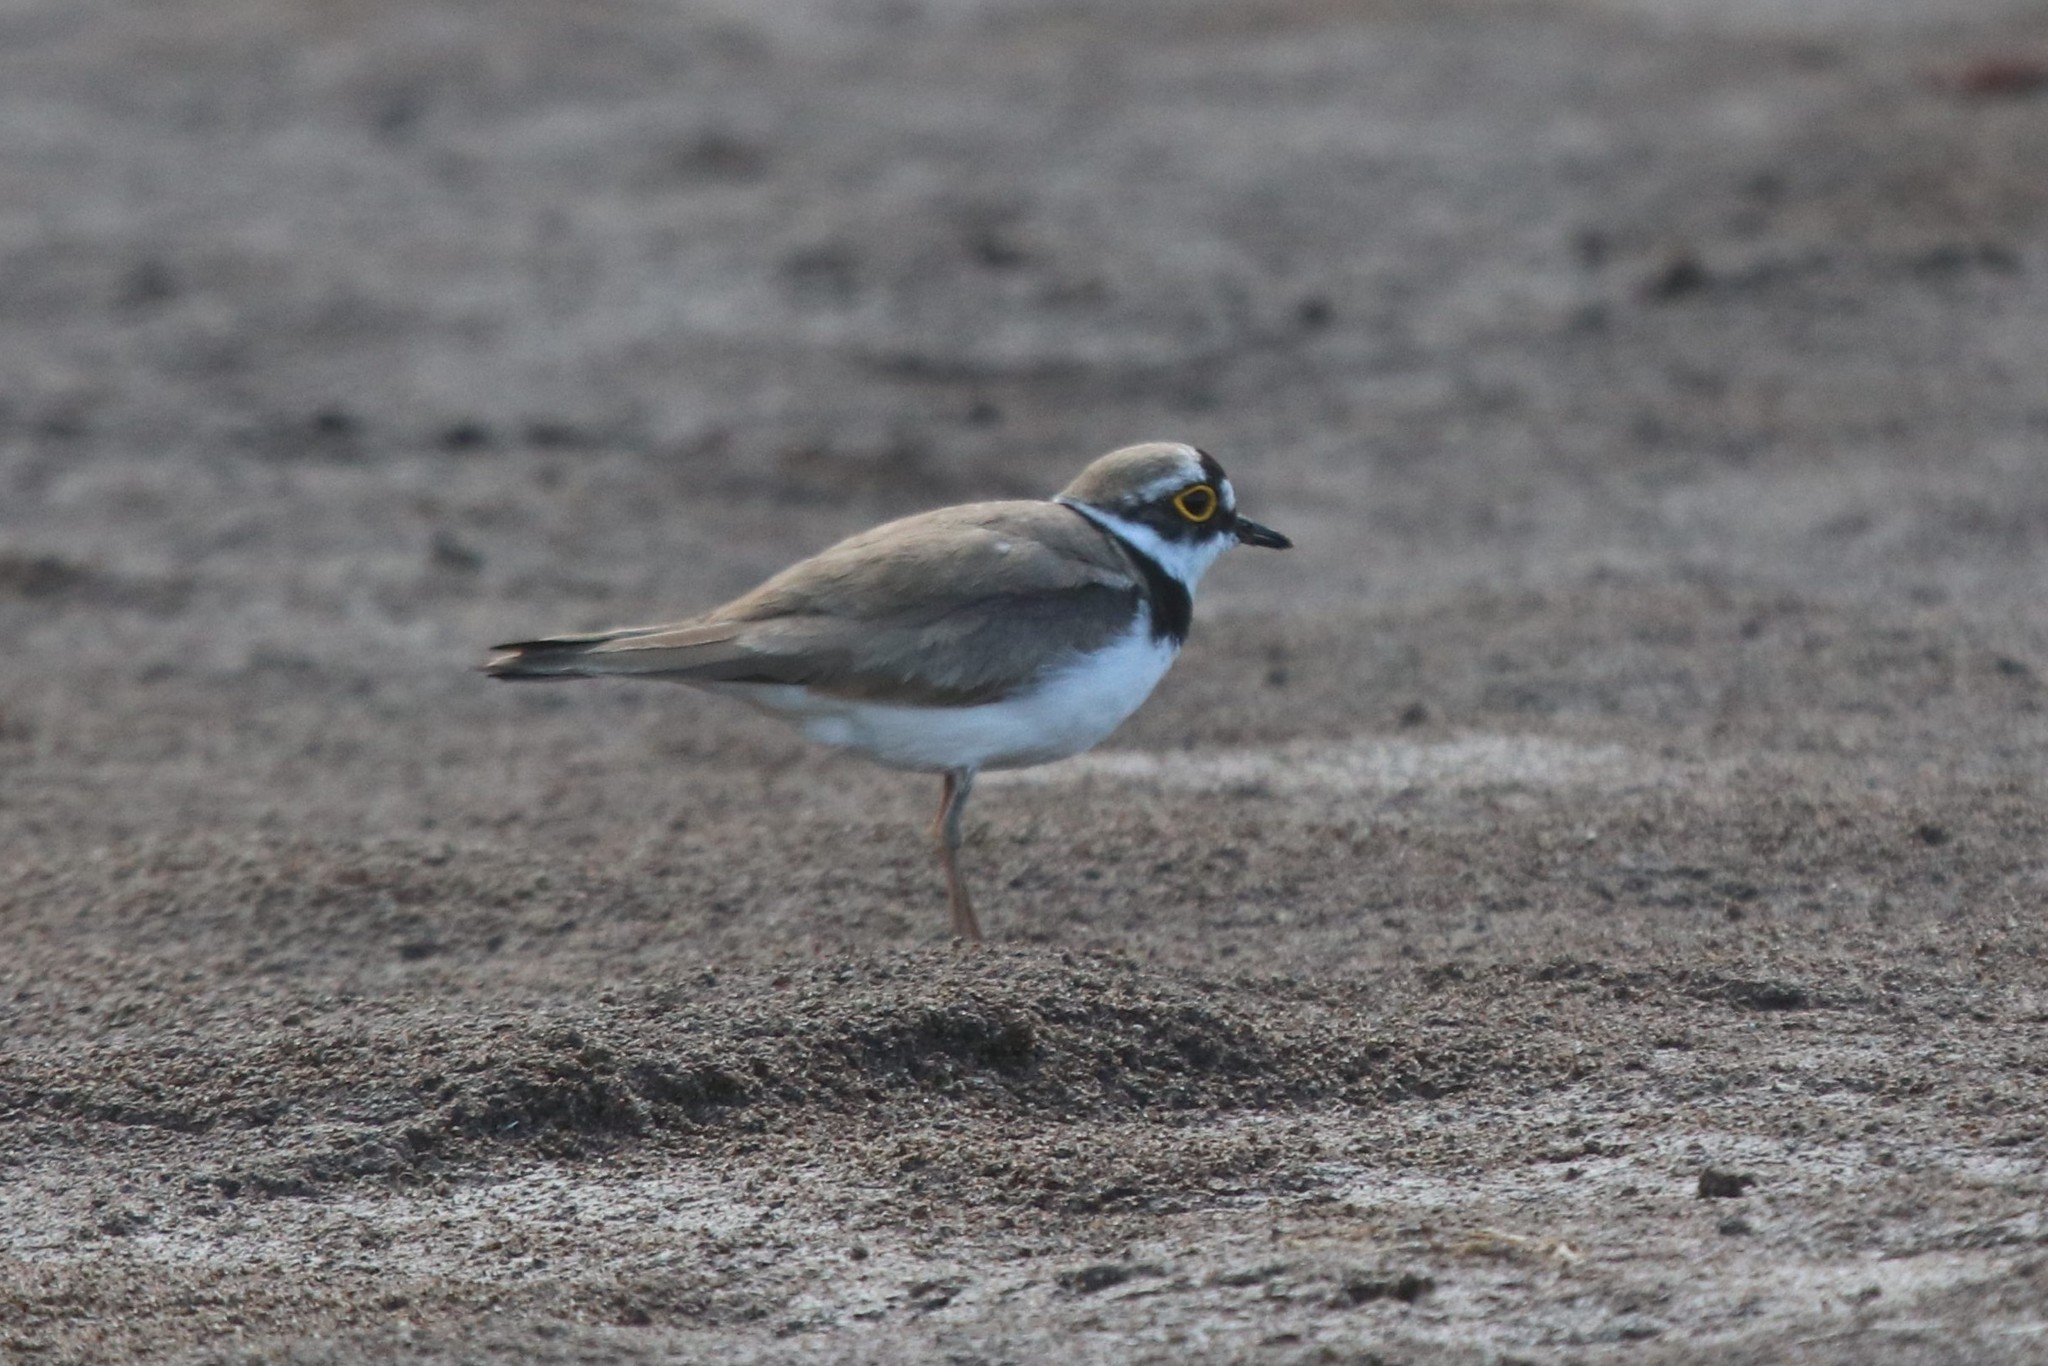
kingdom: Animalia
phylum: Chordata
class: Aves
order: Charadriiformes
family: Charadriidae
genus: Charadrius
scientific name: Charadrius dubius
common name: Little ringed plover
